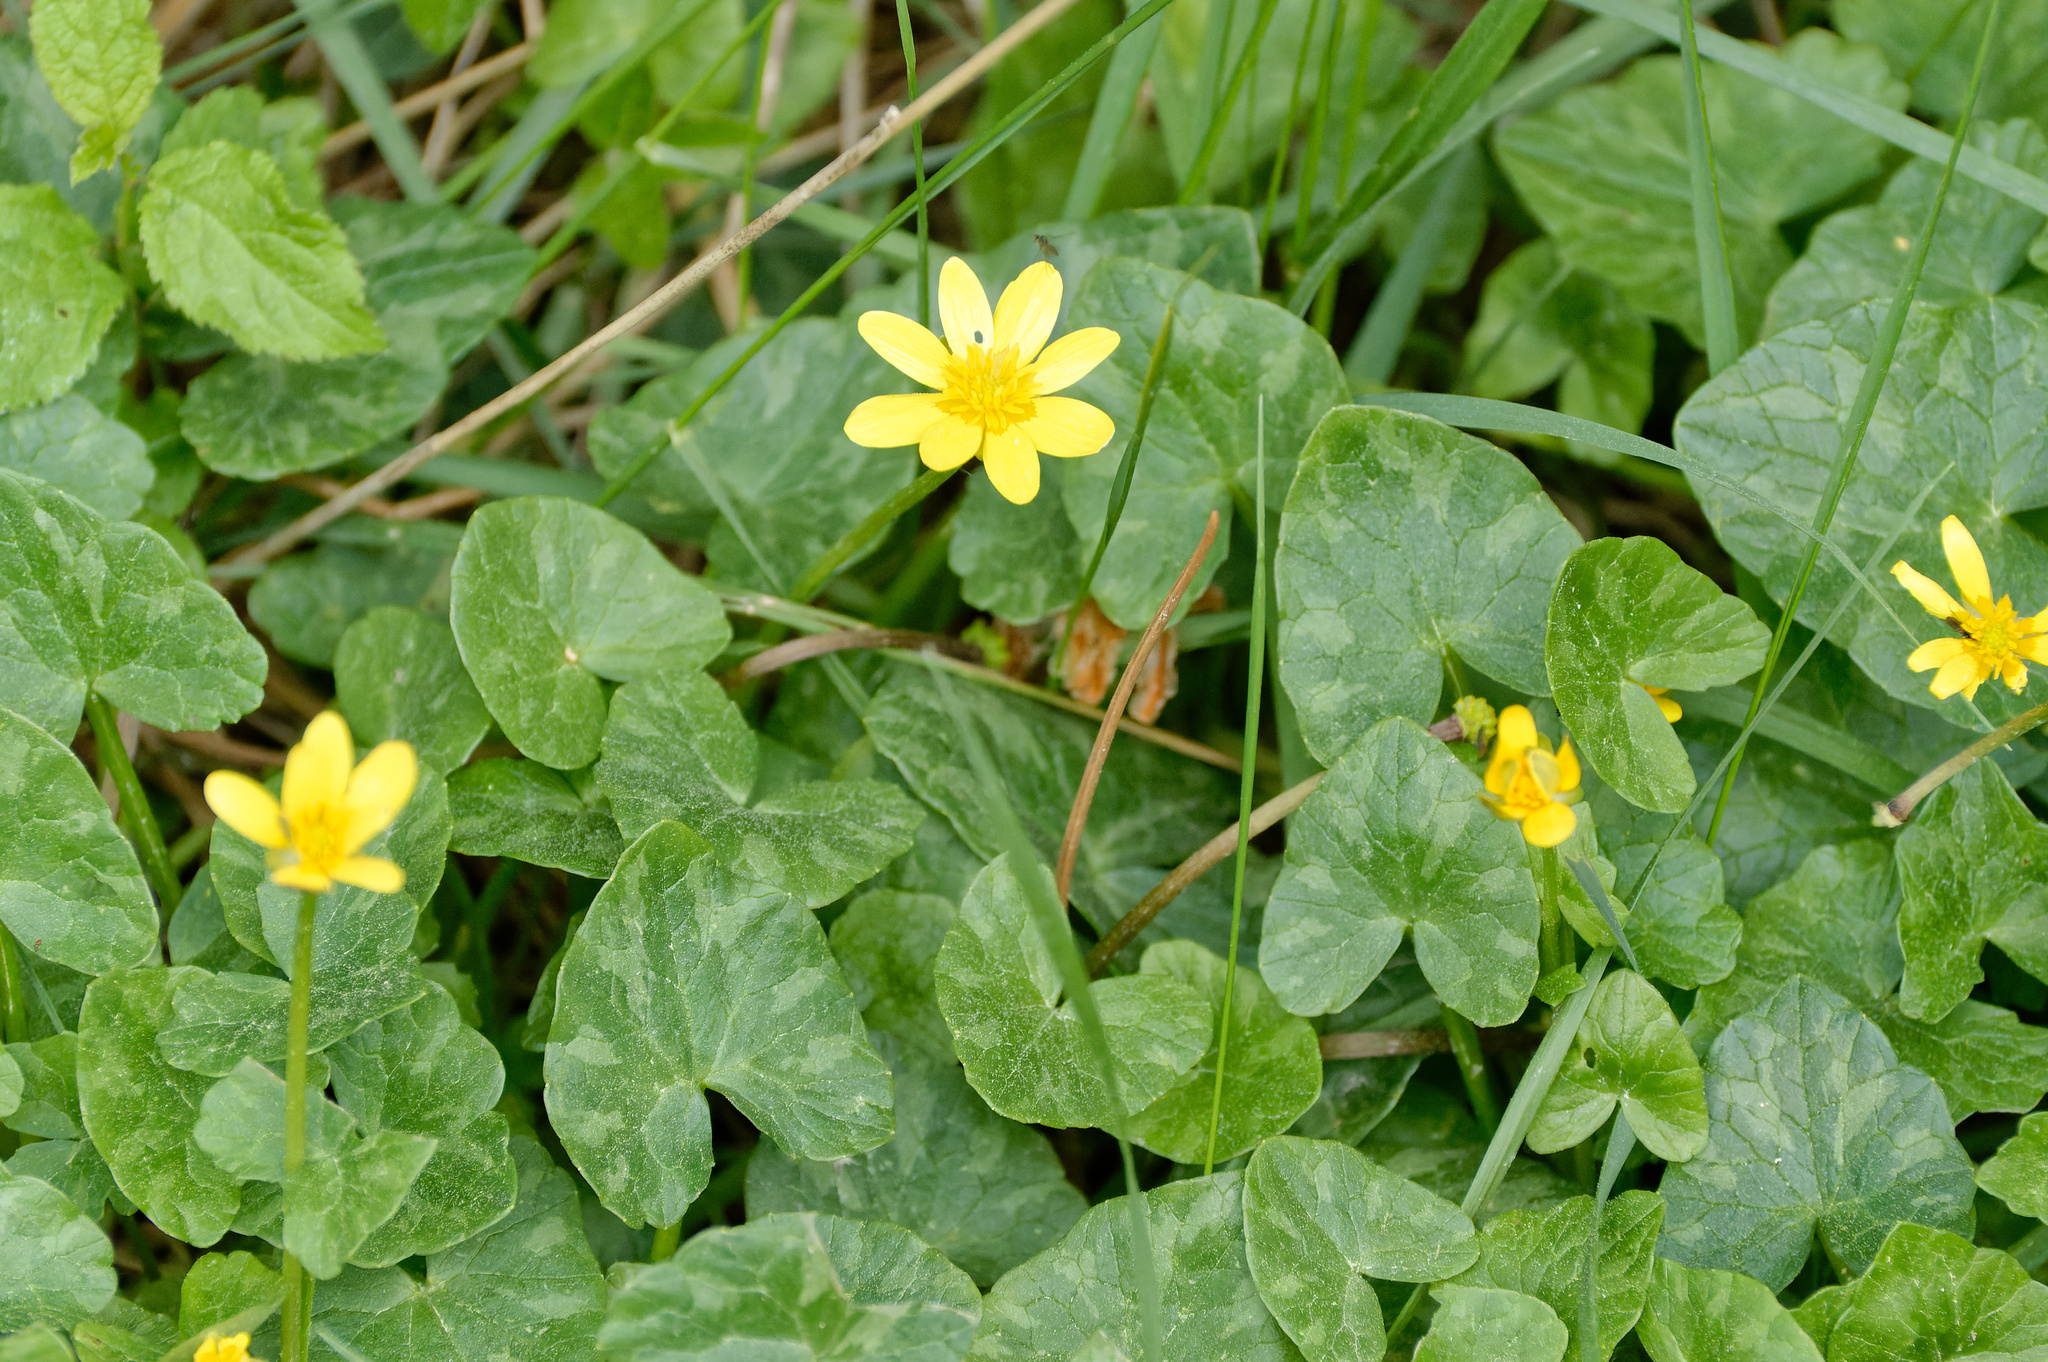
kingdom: Plantae
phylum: Tracheophyta
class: Magnoliopsida
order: Ranunculales
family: Ranunculaceae
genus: Ficaria
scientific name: Ficaria verna
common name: Lesser celandine
